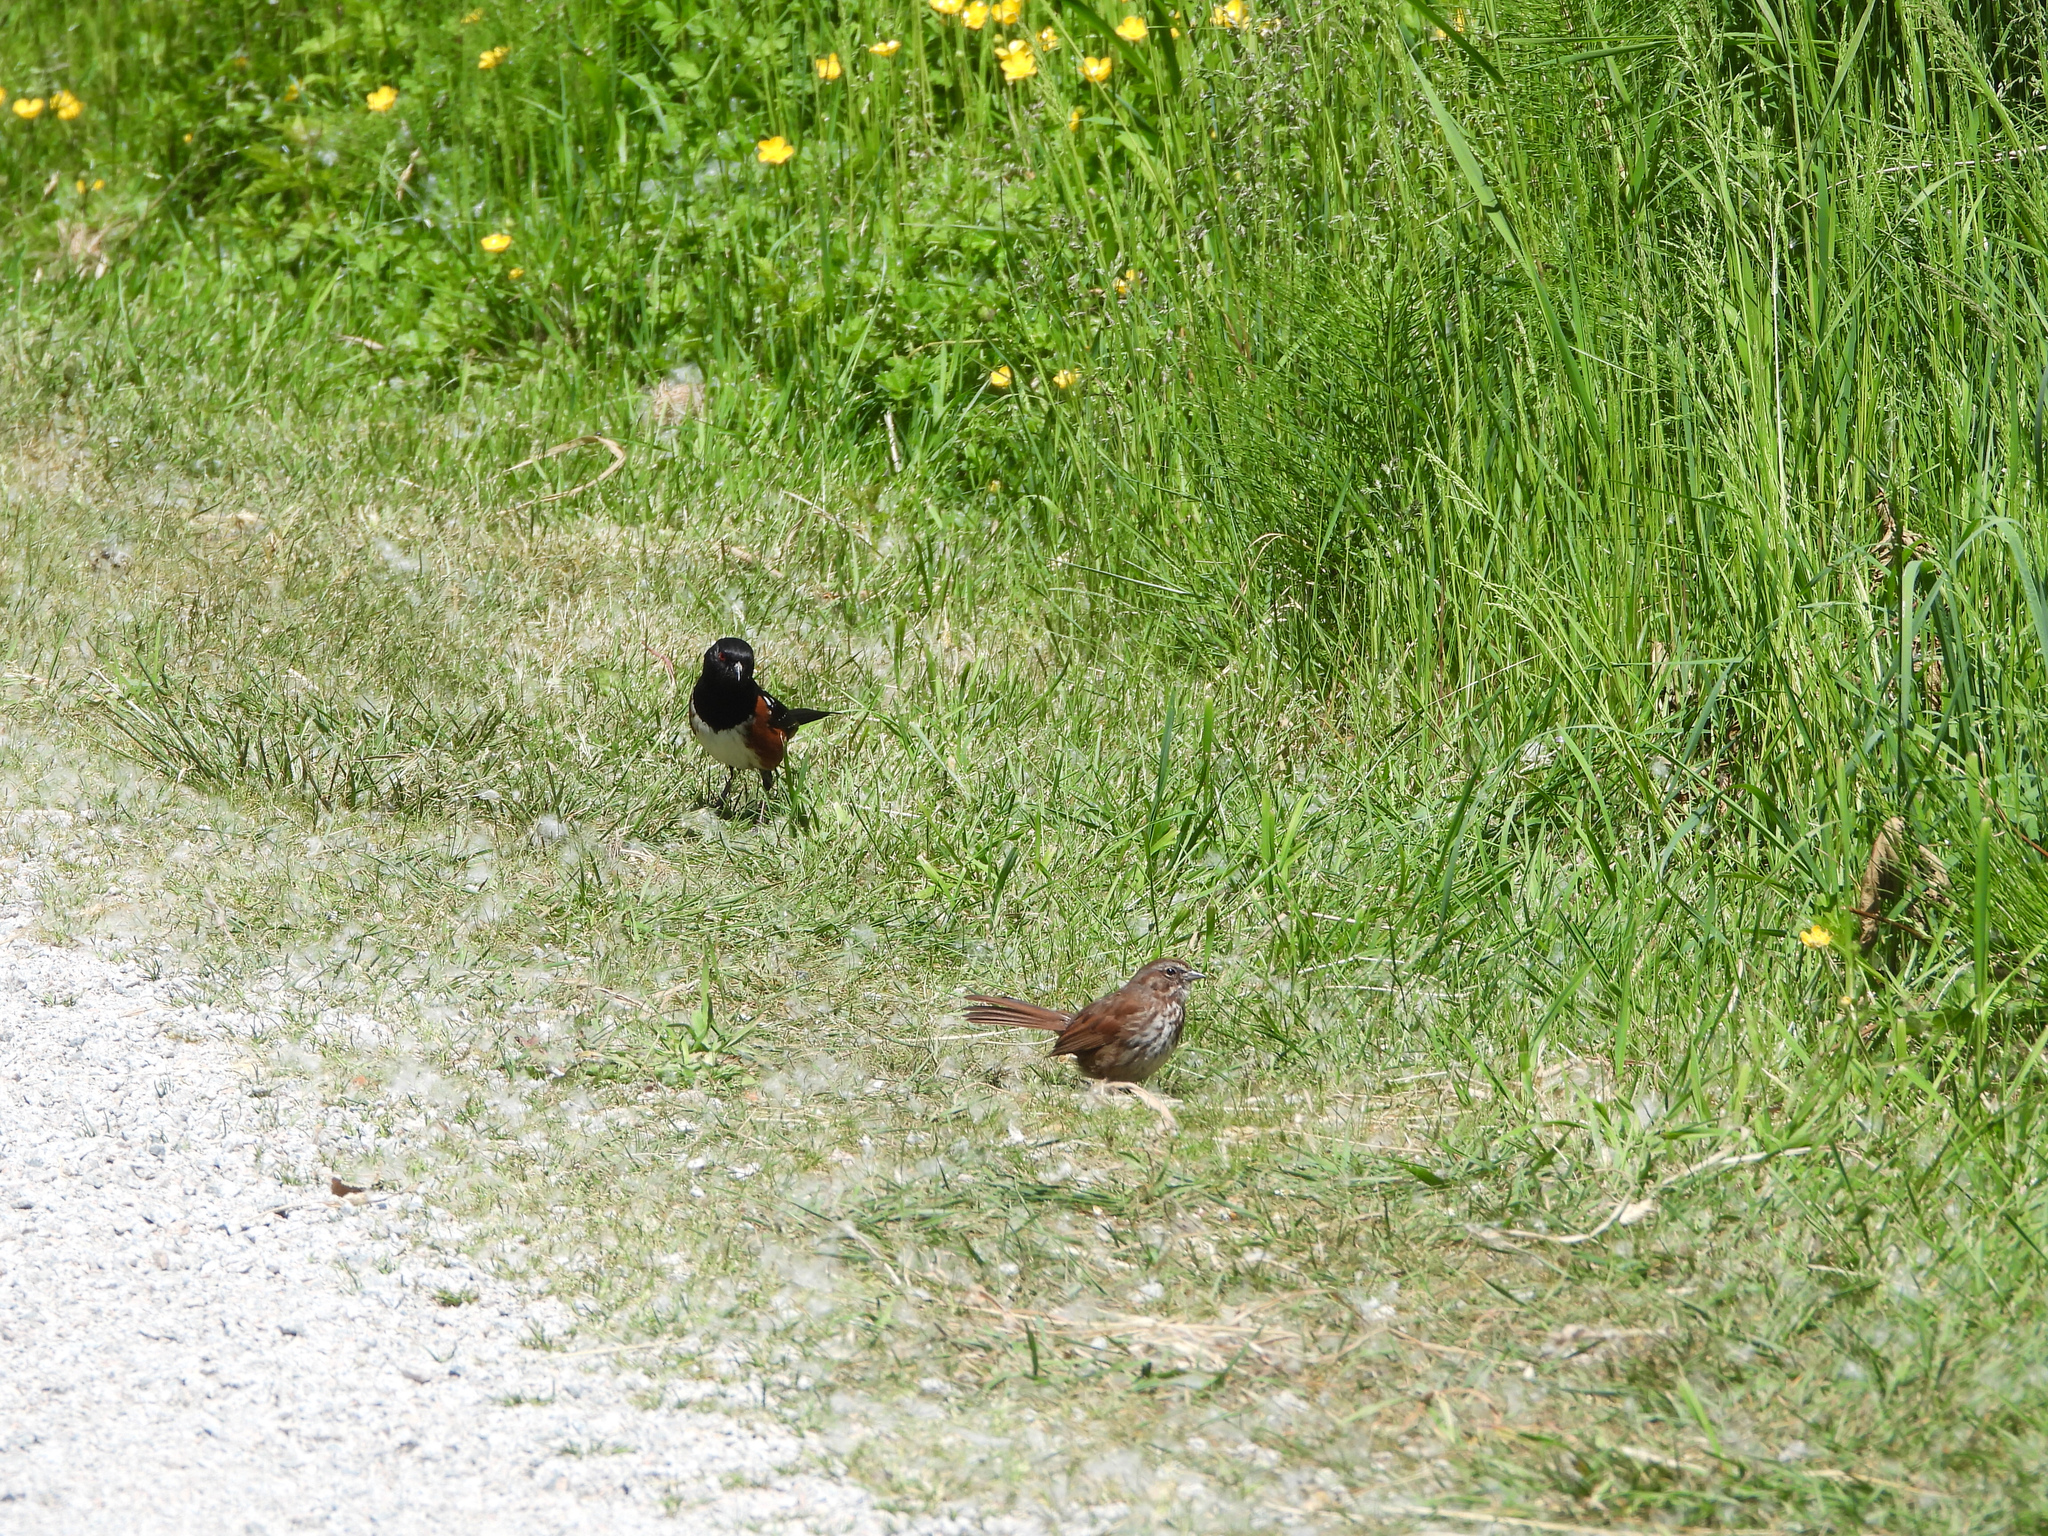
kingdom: Animalia
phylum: Chordata
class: Aves
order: Passeriformes
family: Passerellidae
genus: Melospiza
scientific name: Melospiza melodia
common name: Song sparrow
